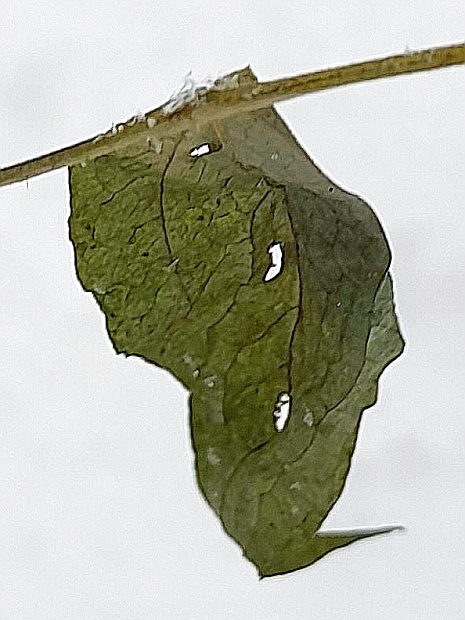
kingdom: Plantae
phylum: Tracheophyta
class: Magnoliopsida
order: Fabales
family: Fabaceae
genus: Lathyrus
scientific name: Lathyrus vernus
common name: Spring pea
